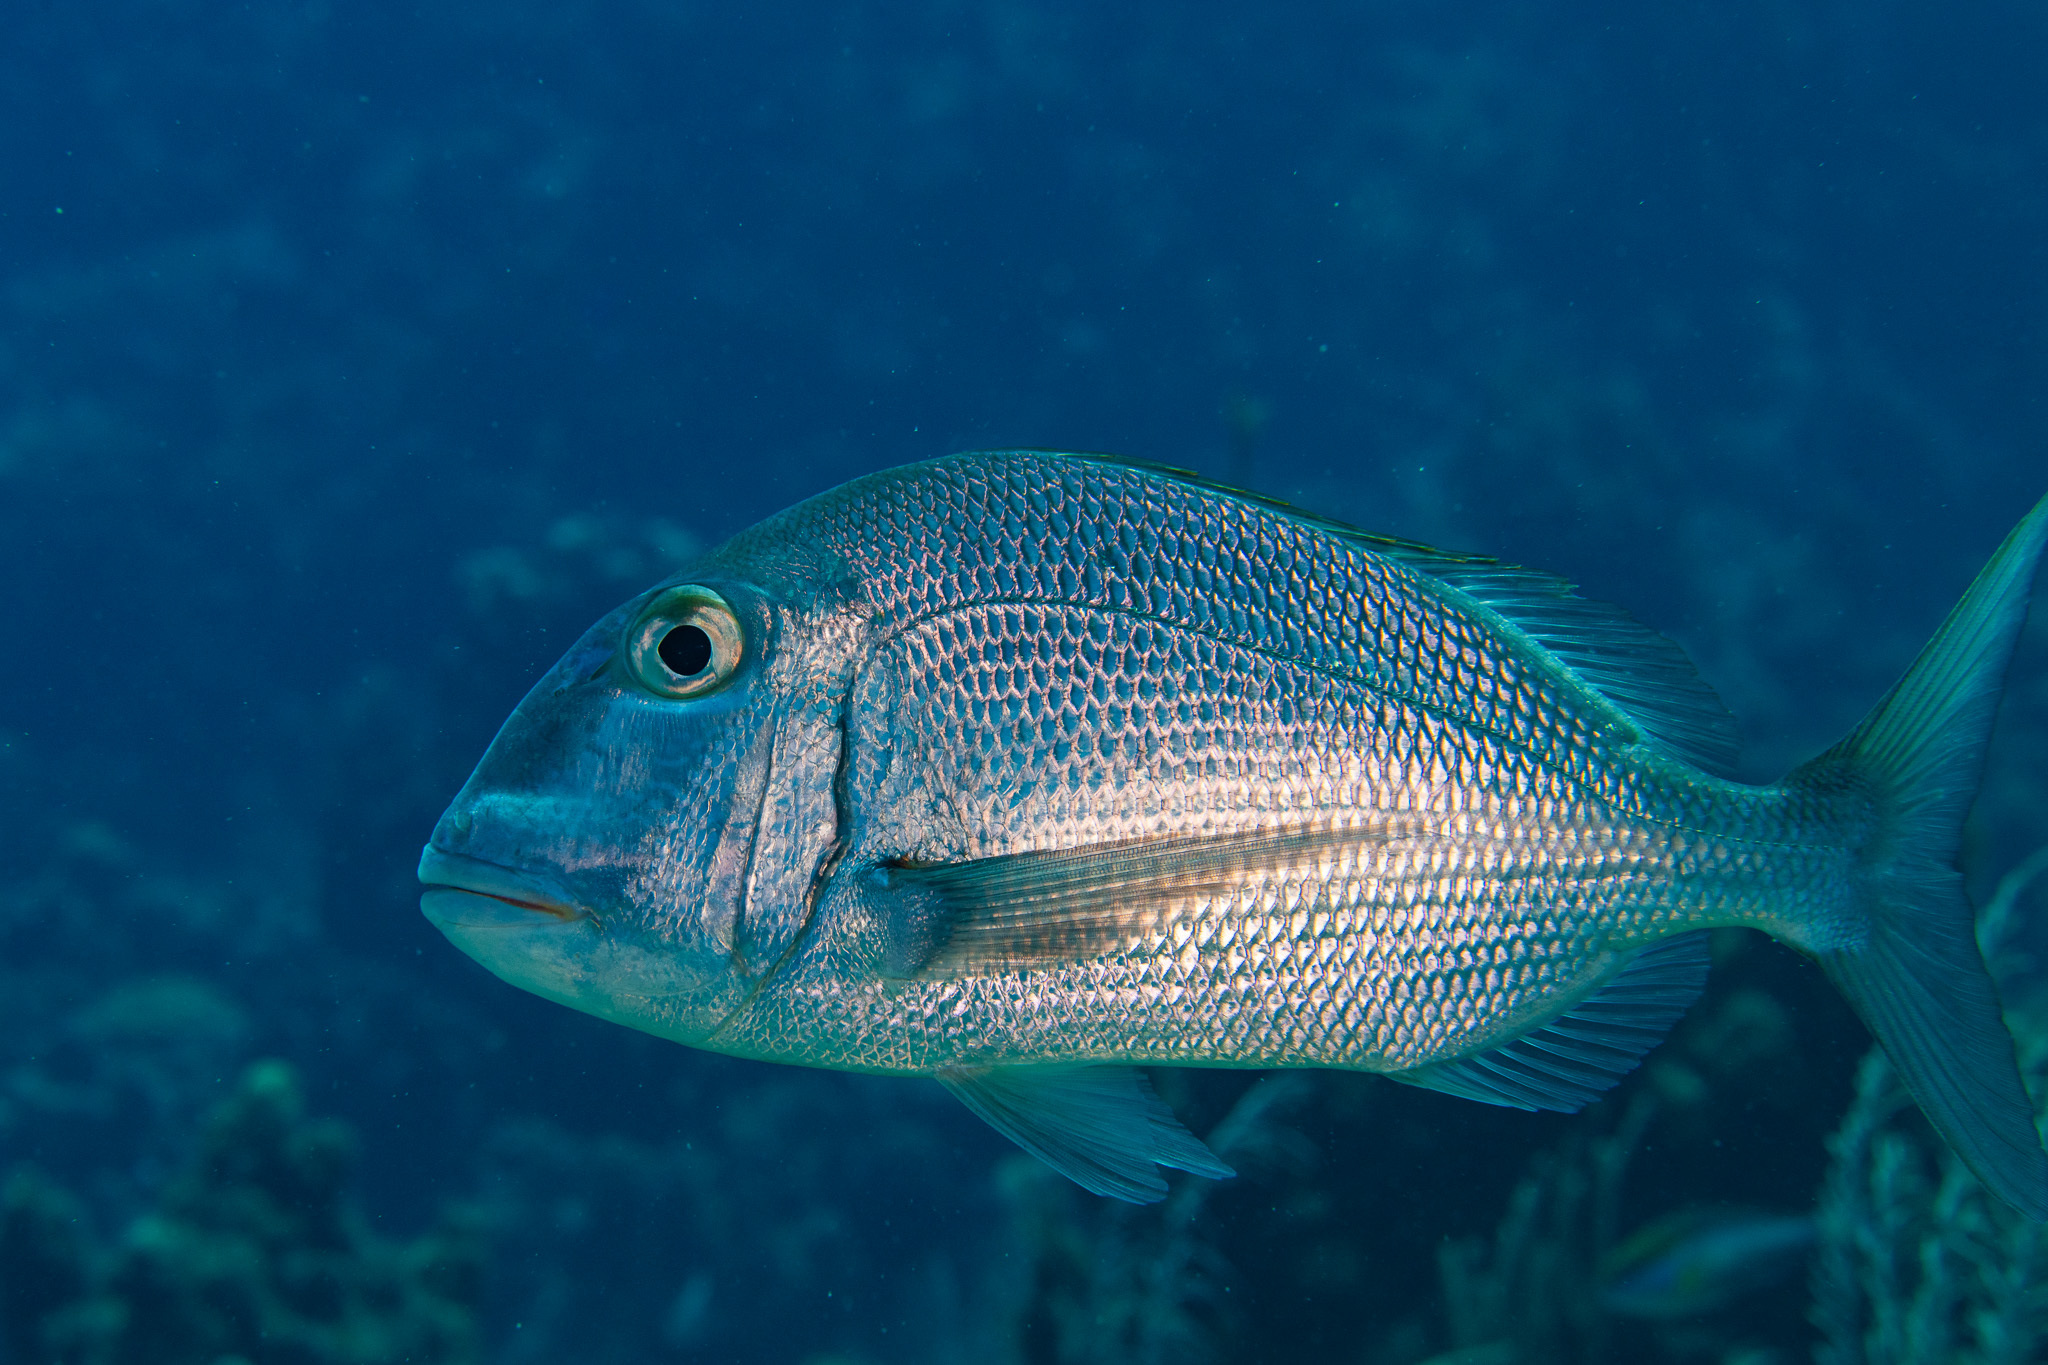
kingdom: Animalia
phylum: Chordata
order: Perciformes
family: Sparidae
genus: Calamus
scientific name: Calamus bajonado
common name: Jolthead porgy
